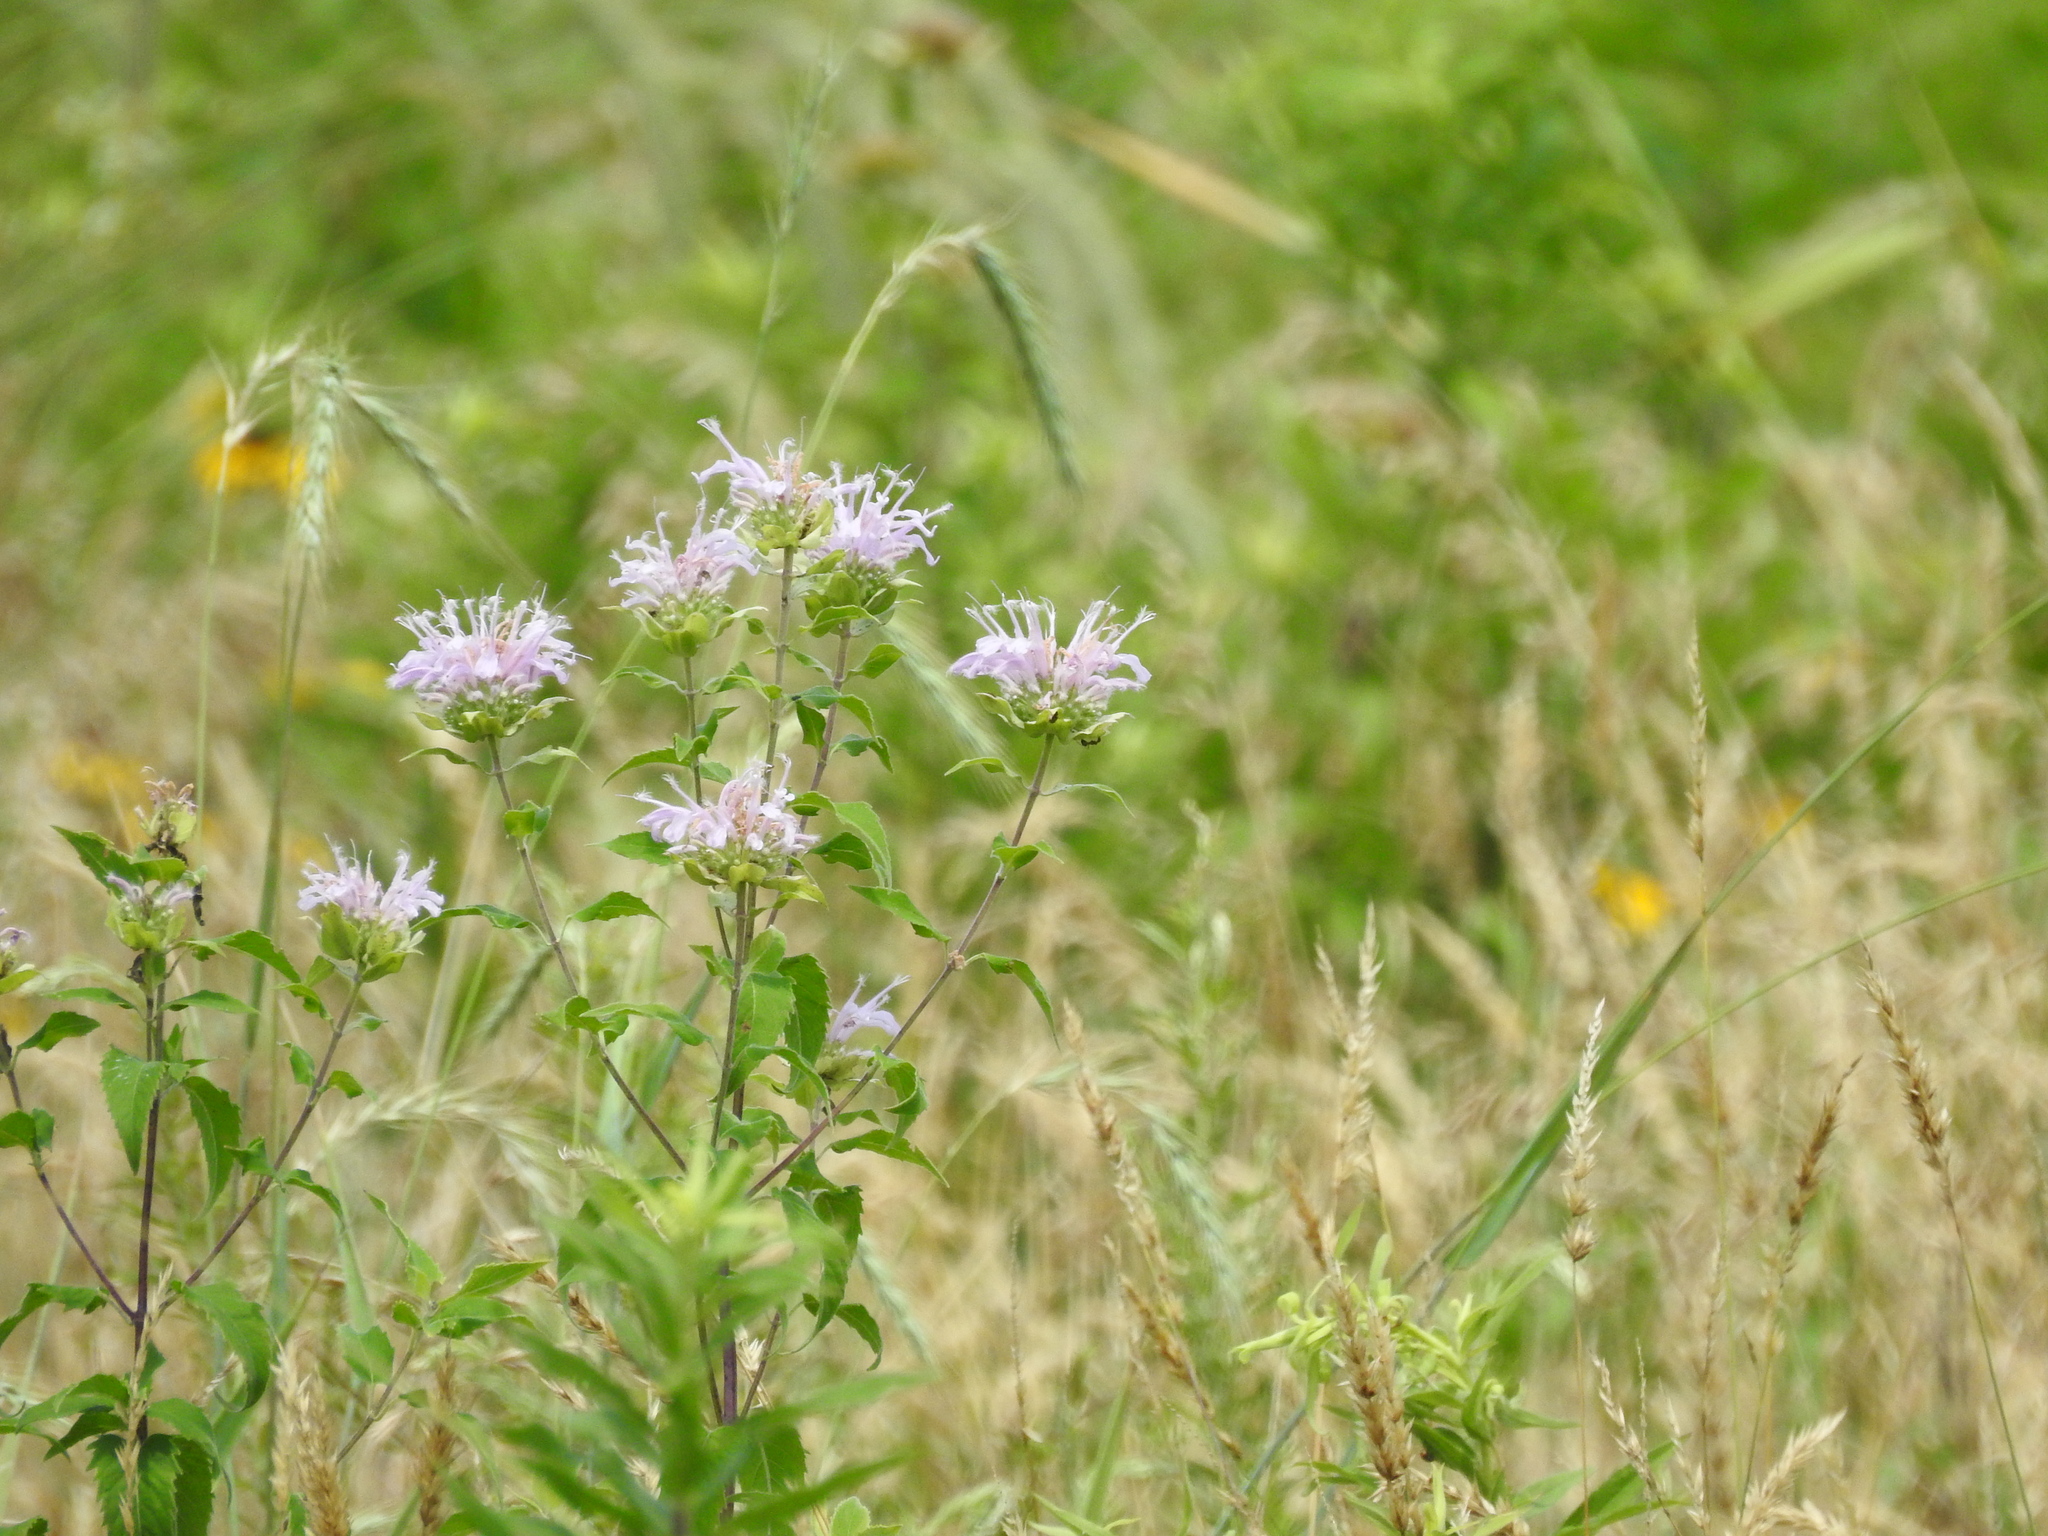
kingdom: Plantae
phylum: Tracheophyta
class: Magnoliopsida
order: Lamiales
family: Lamiaceae
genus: Monarda
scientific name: Monarda fistulosa
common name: Purple beebalm
